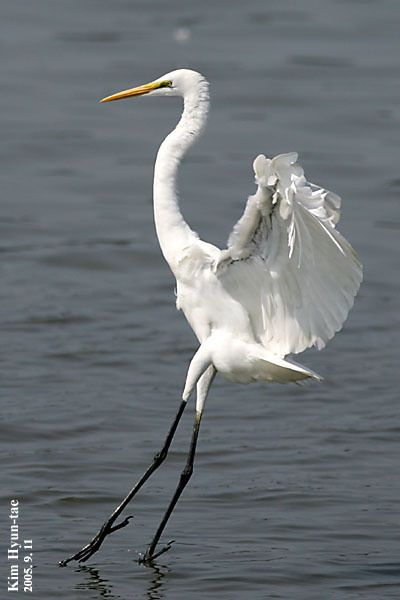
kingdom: Animalia
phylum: Chordata
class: Aves
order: Pelecaniformes
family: Ardeidae
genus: Ardea
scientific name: Ardea alba
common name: Great egret
